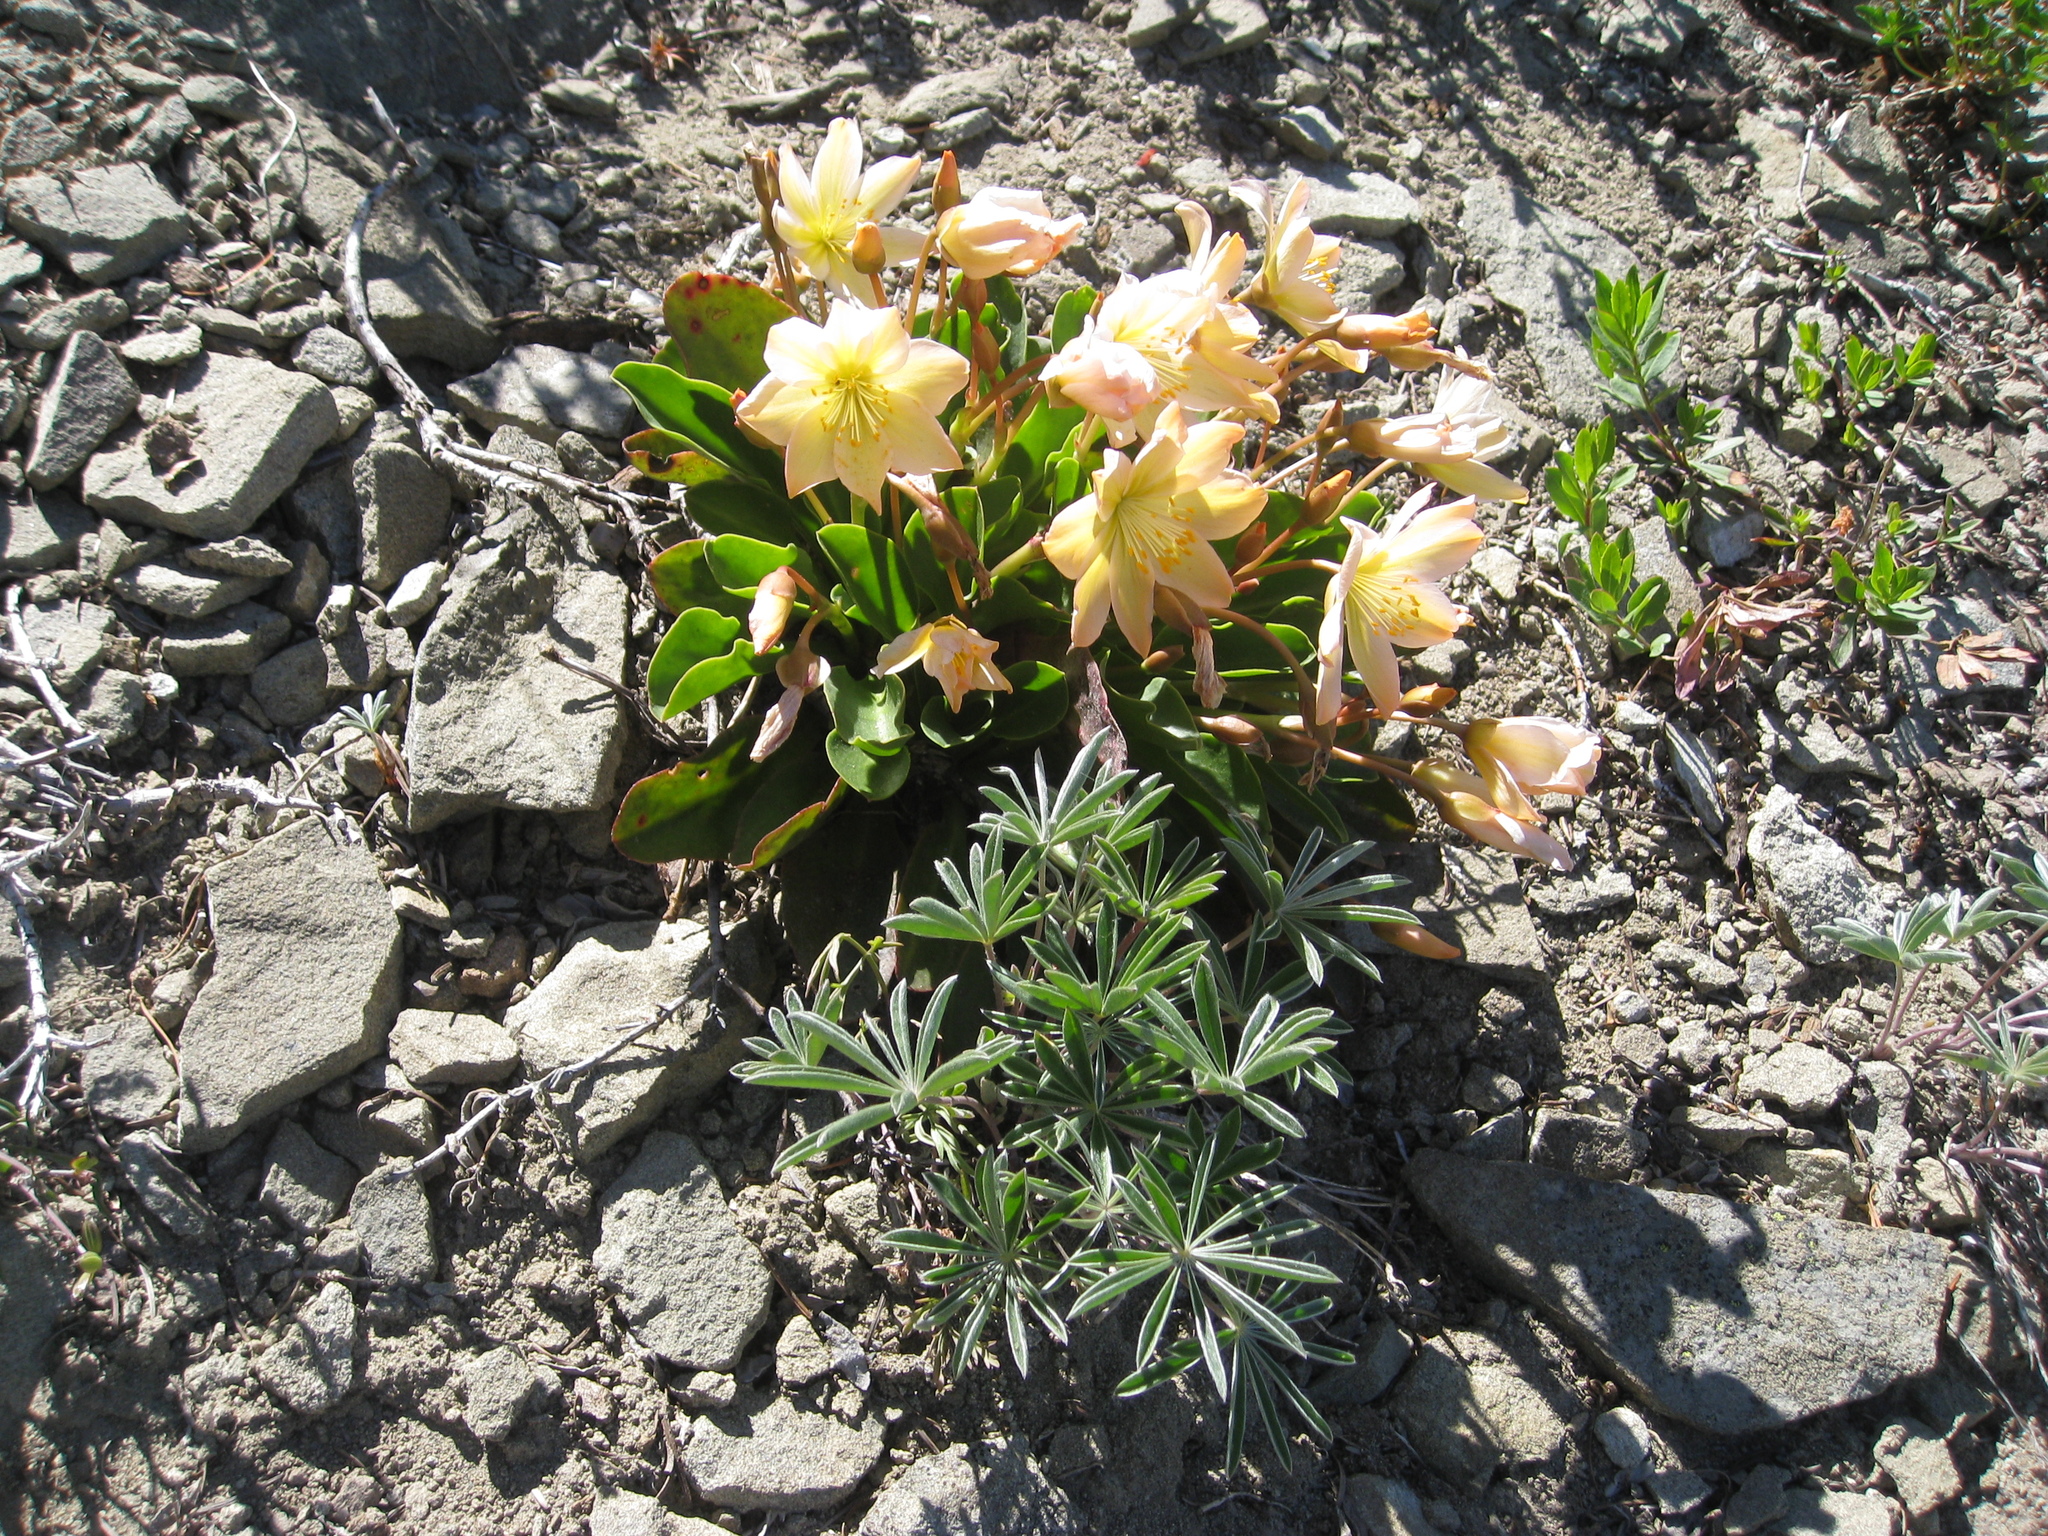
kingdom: Plantae
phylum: Tracheophyta
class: Magnoliopsida
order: Caryophyllales
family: Montiaceae
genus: Lewisiopsis
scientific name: Lewisiopsis tweedyi
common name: Tweedy's pussypaws
